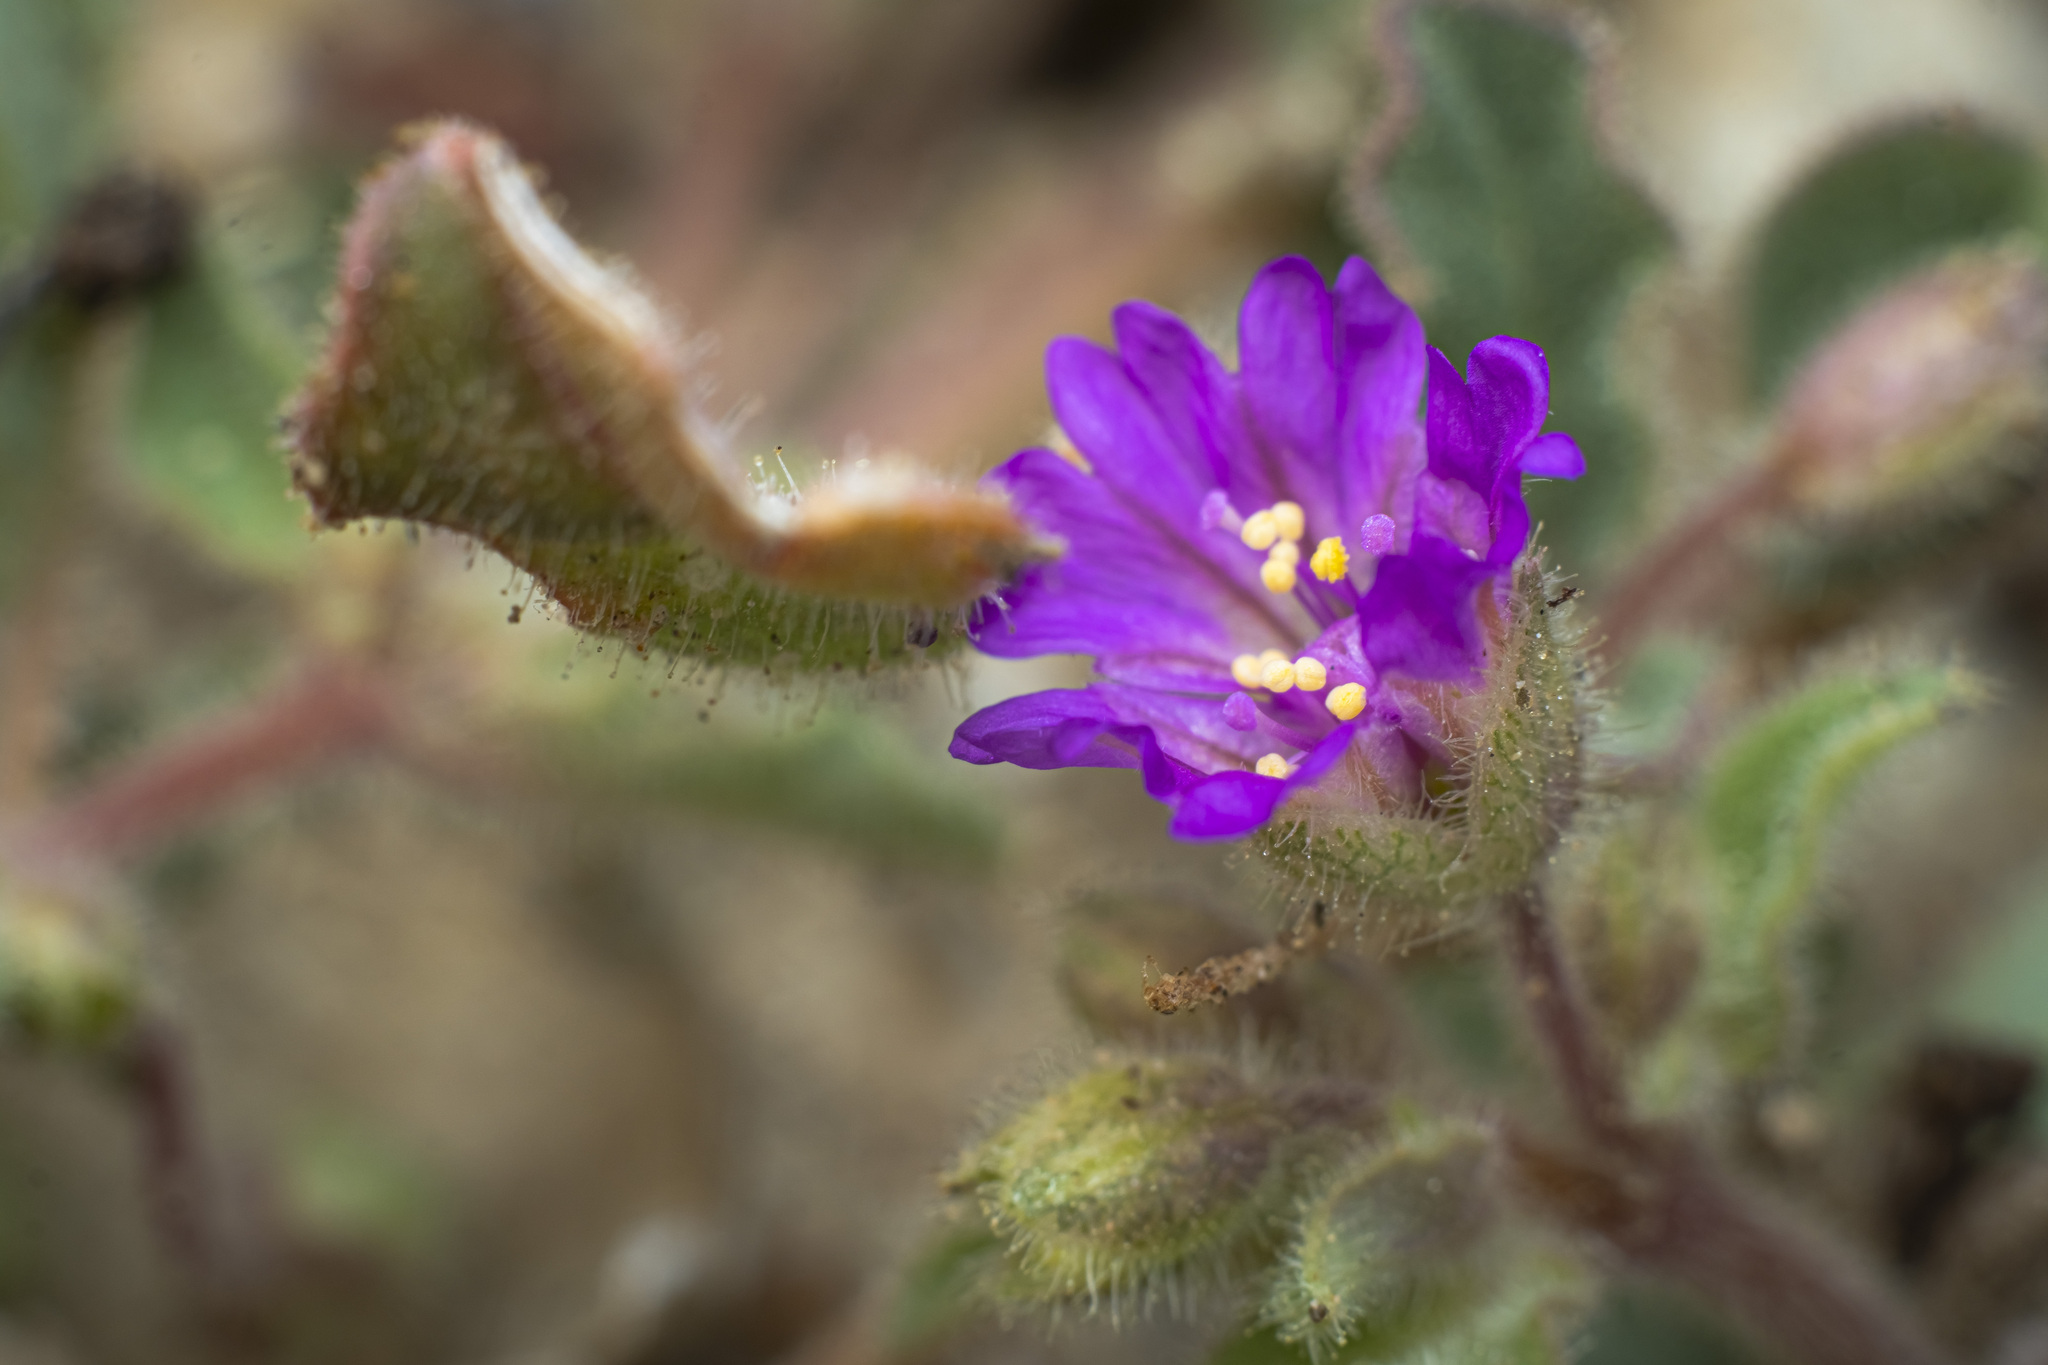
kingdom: Plantae
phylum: Tracheophyta
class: Magnoliopsida
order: Caryophyllales
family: Nyctaginaceae
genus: Allionia
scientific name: Allionia incarnata
